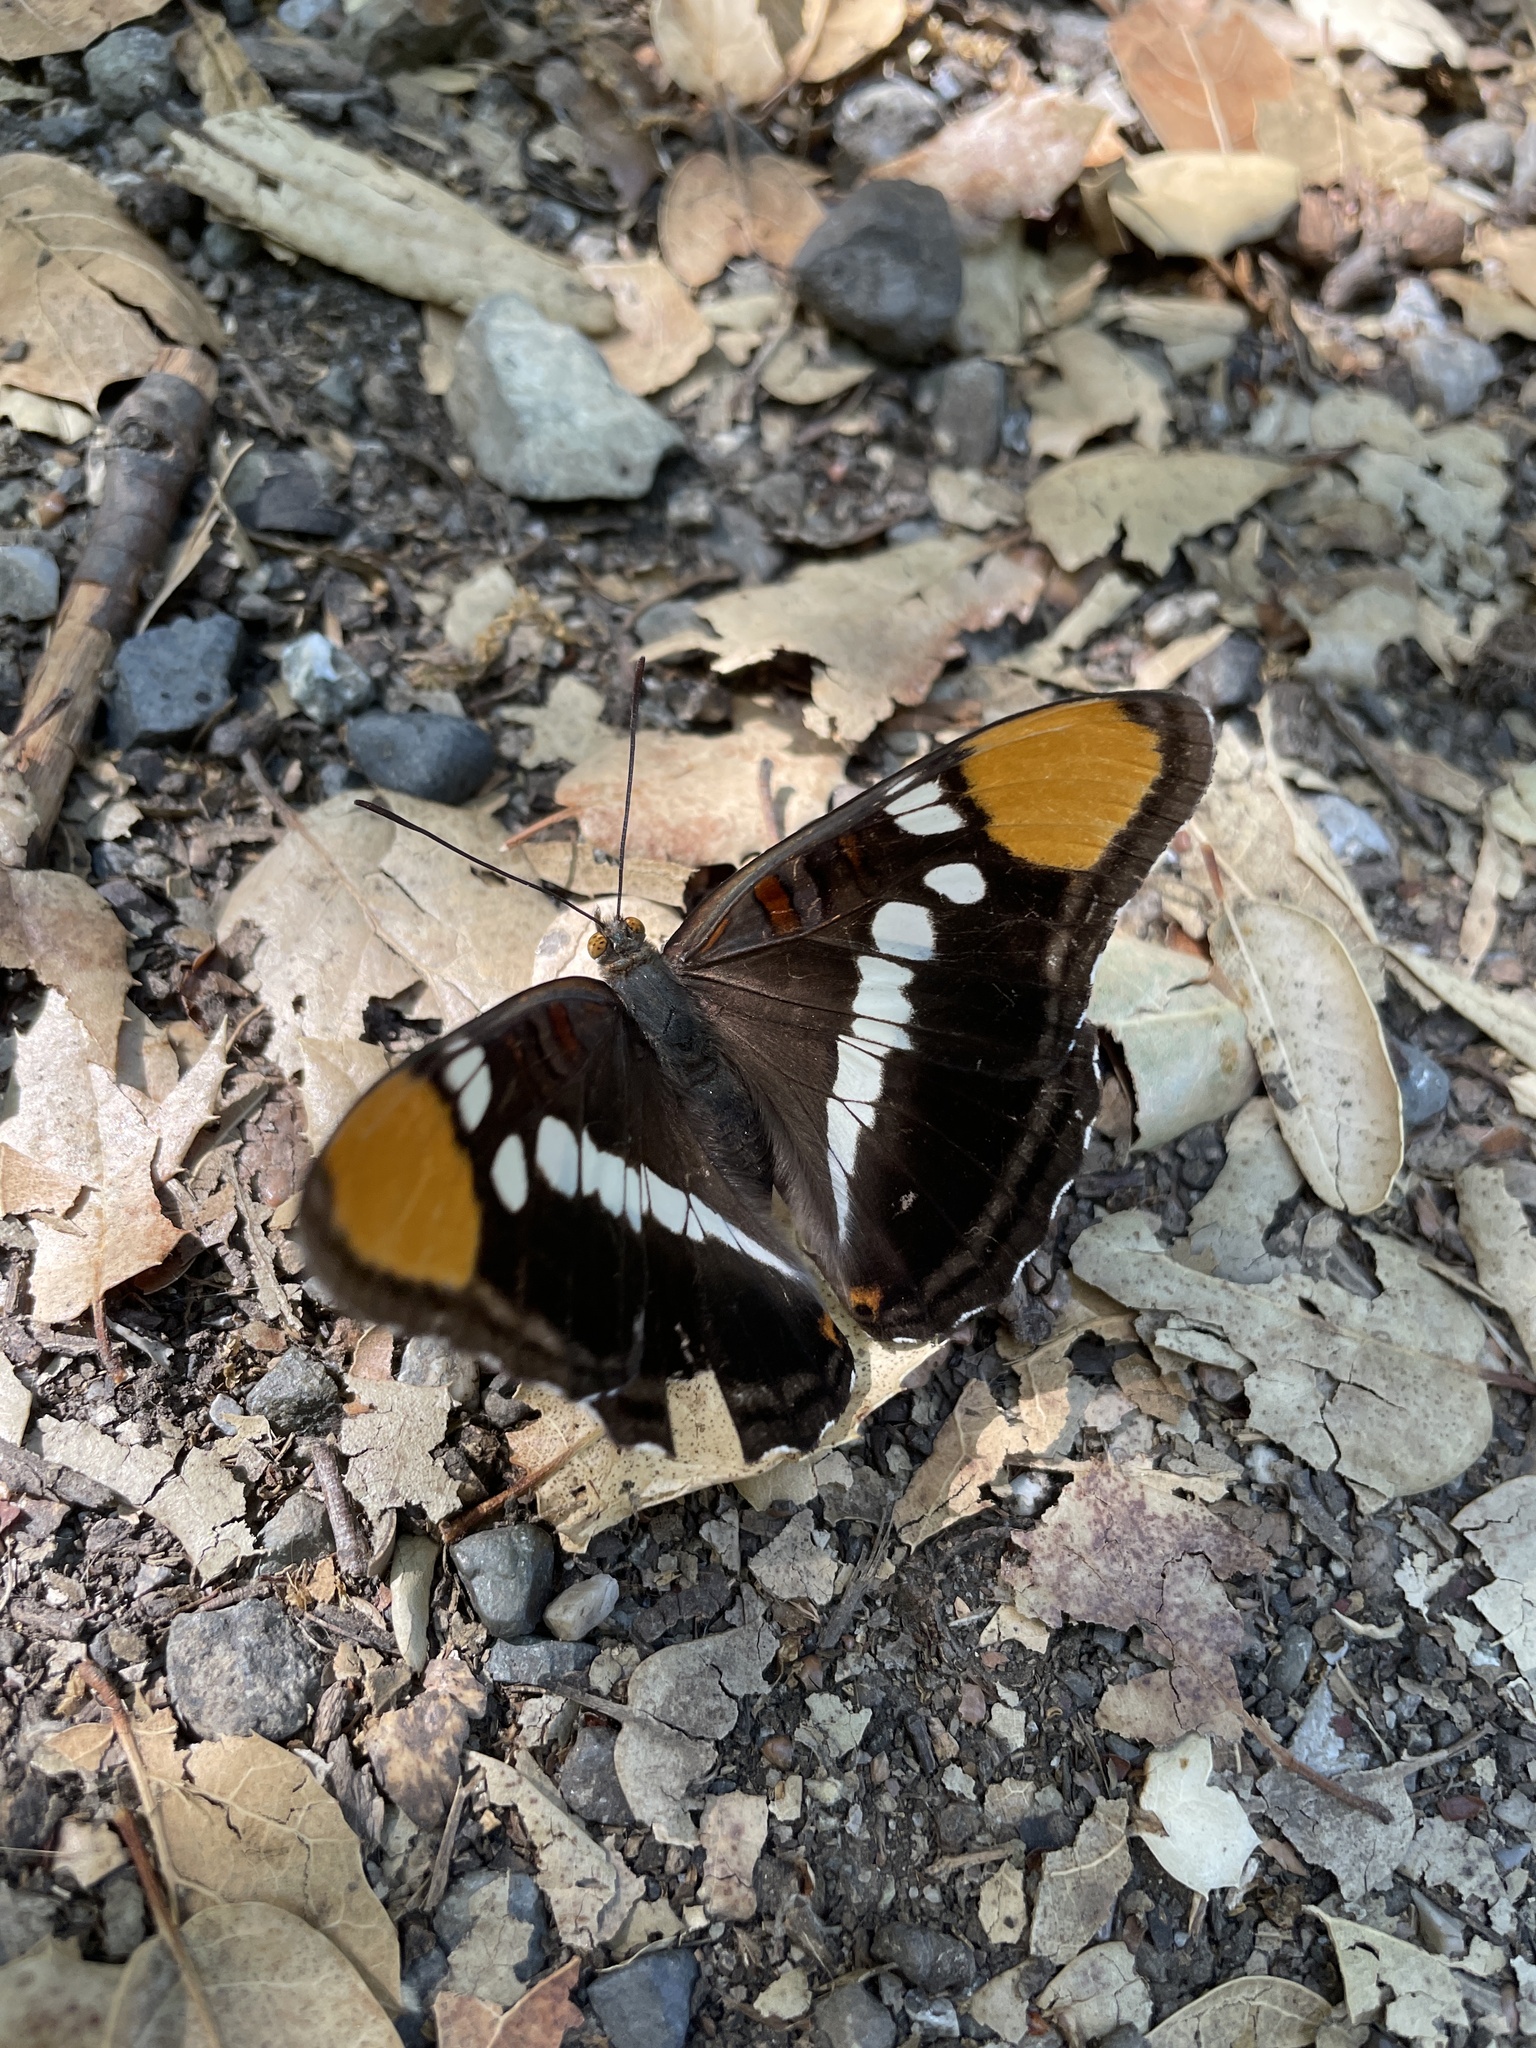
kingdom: Animalia
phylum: Arthropoda
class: Insecta
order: Lepidoptera
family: Nymphalidae
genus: Limenitis
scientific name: Limenitis bredowii
